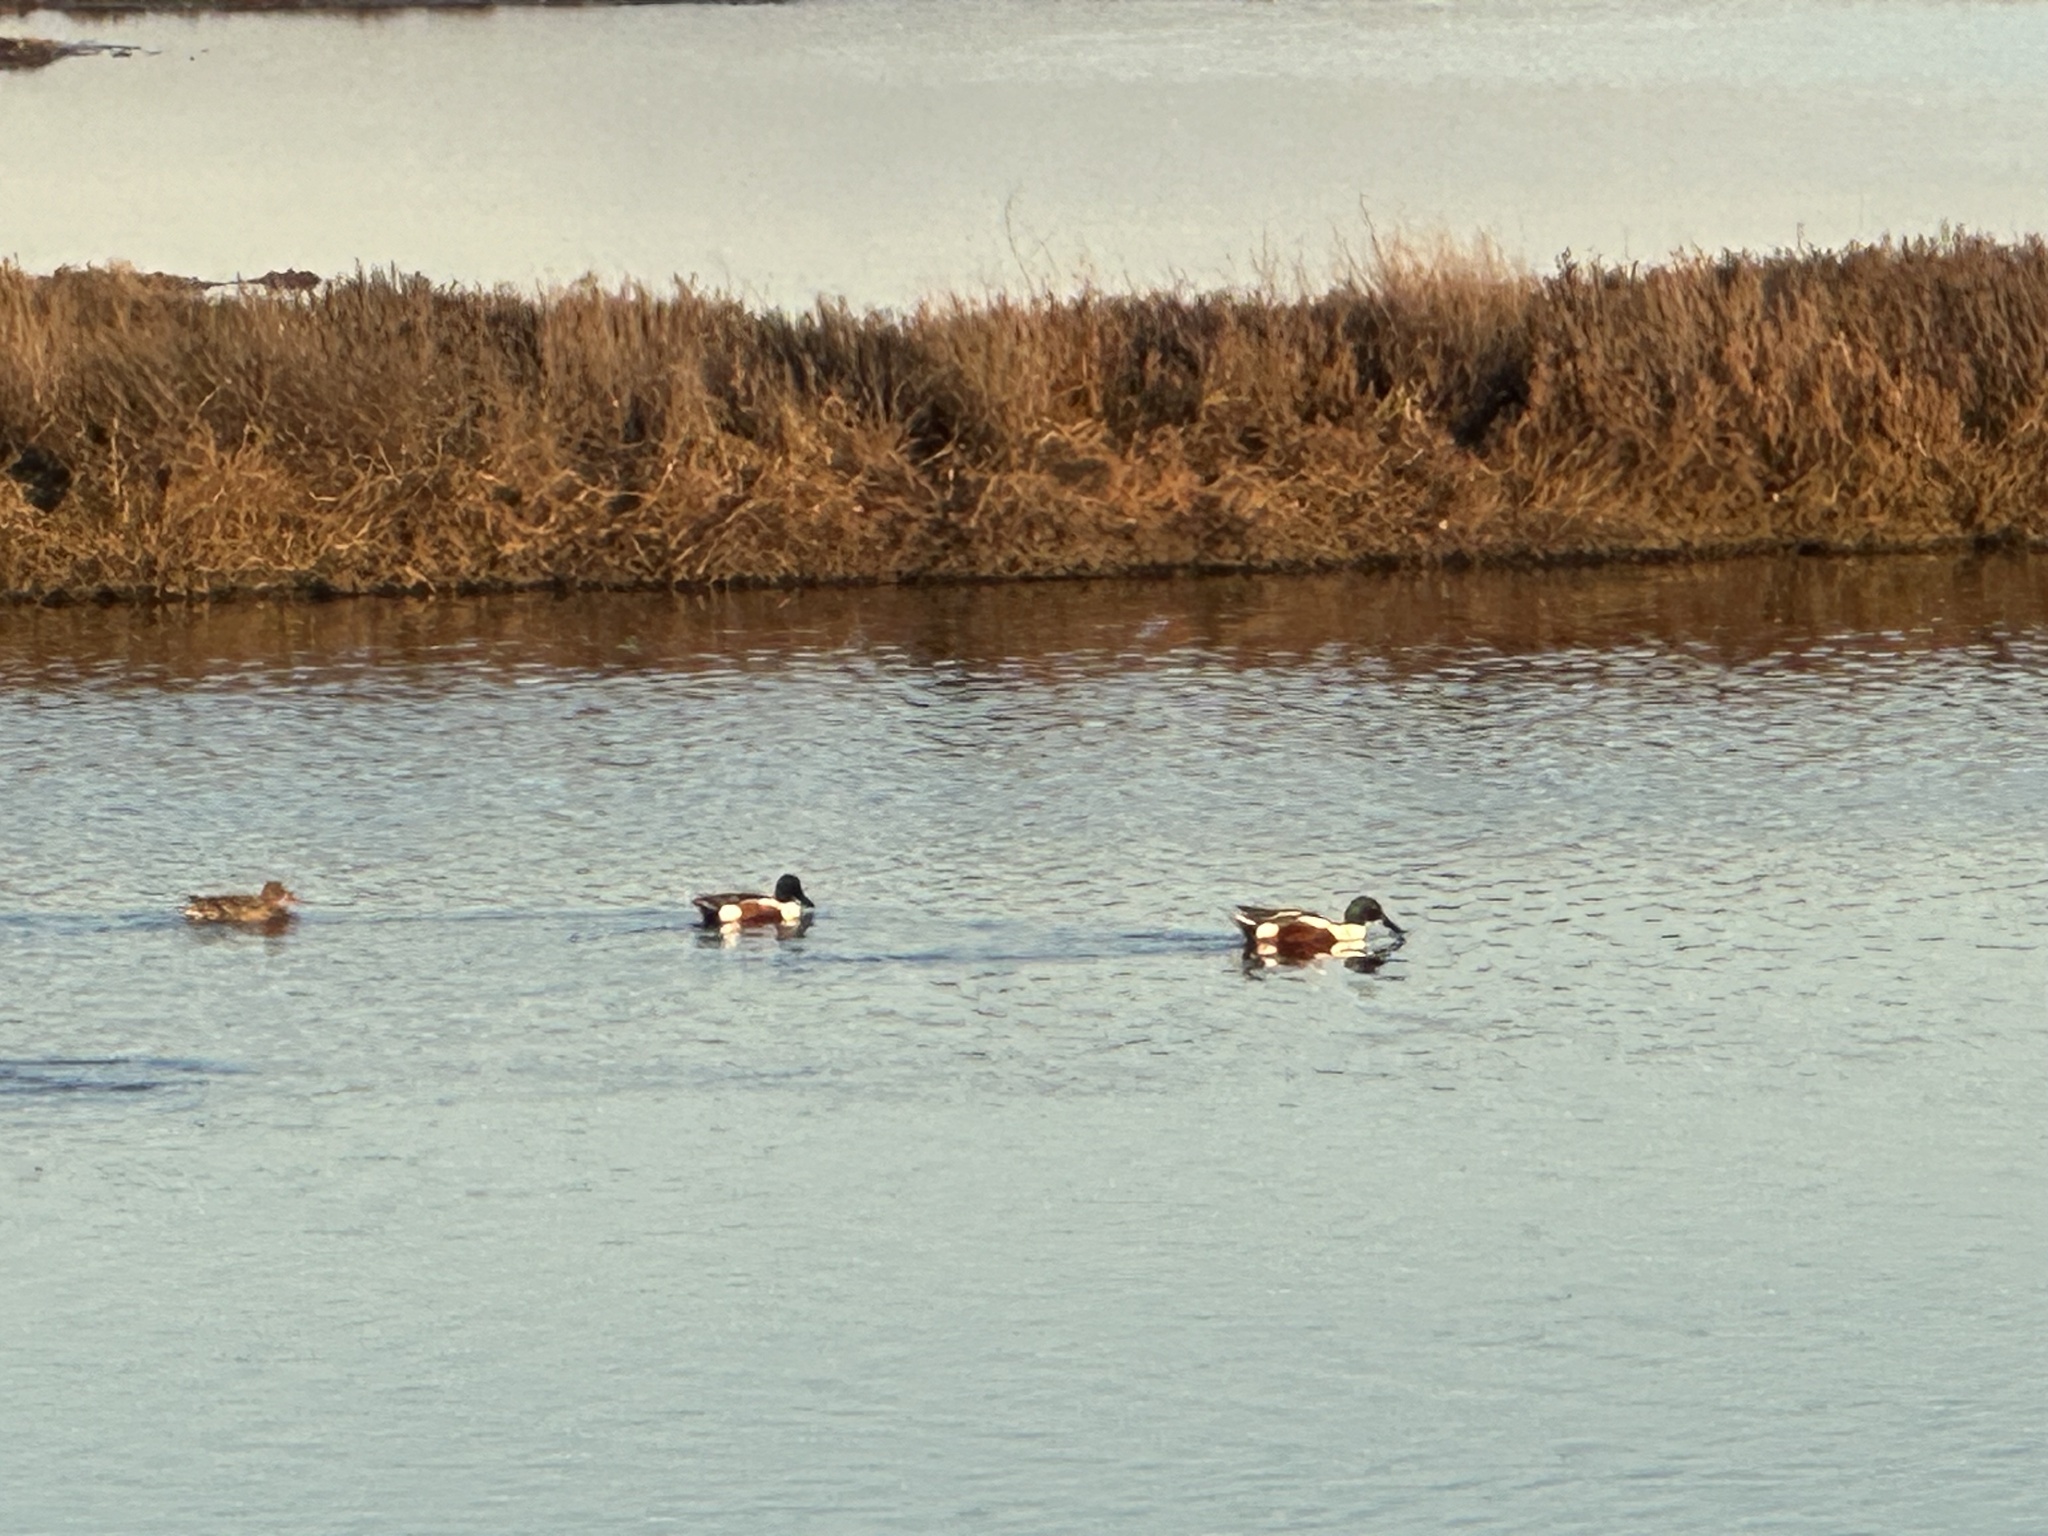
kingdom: Animalia
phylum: Chordata
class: Aves
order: Anseriformes
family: Anatidae
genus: Spatula
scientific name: Spatula clypeata
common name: Northern shoveler
